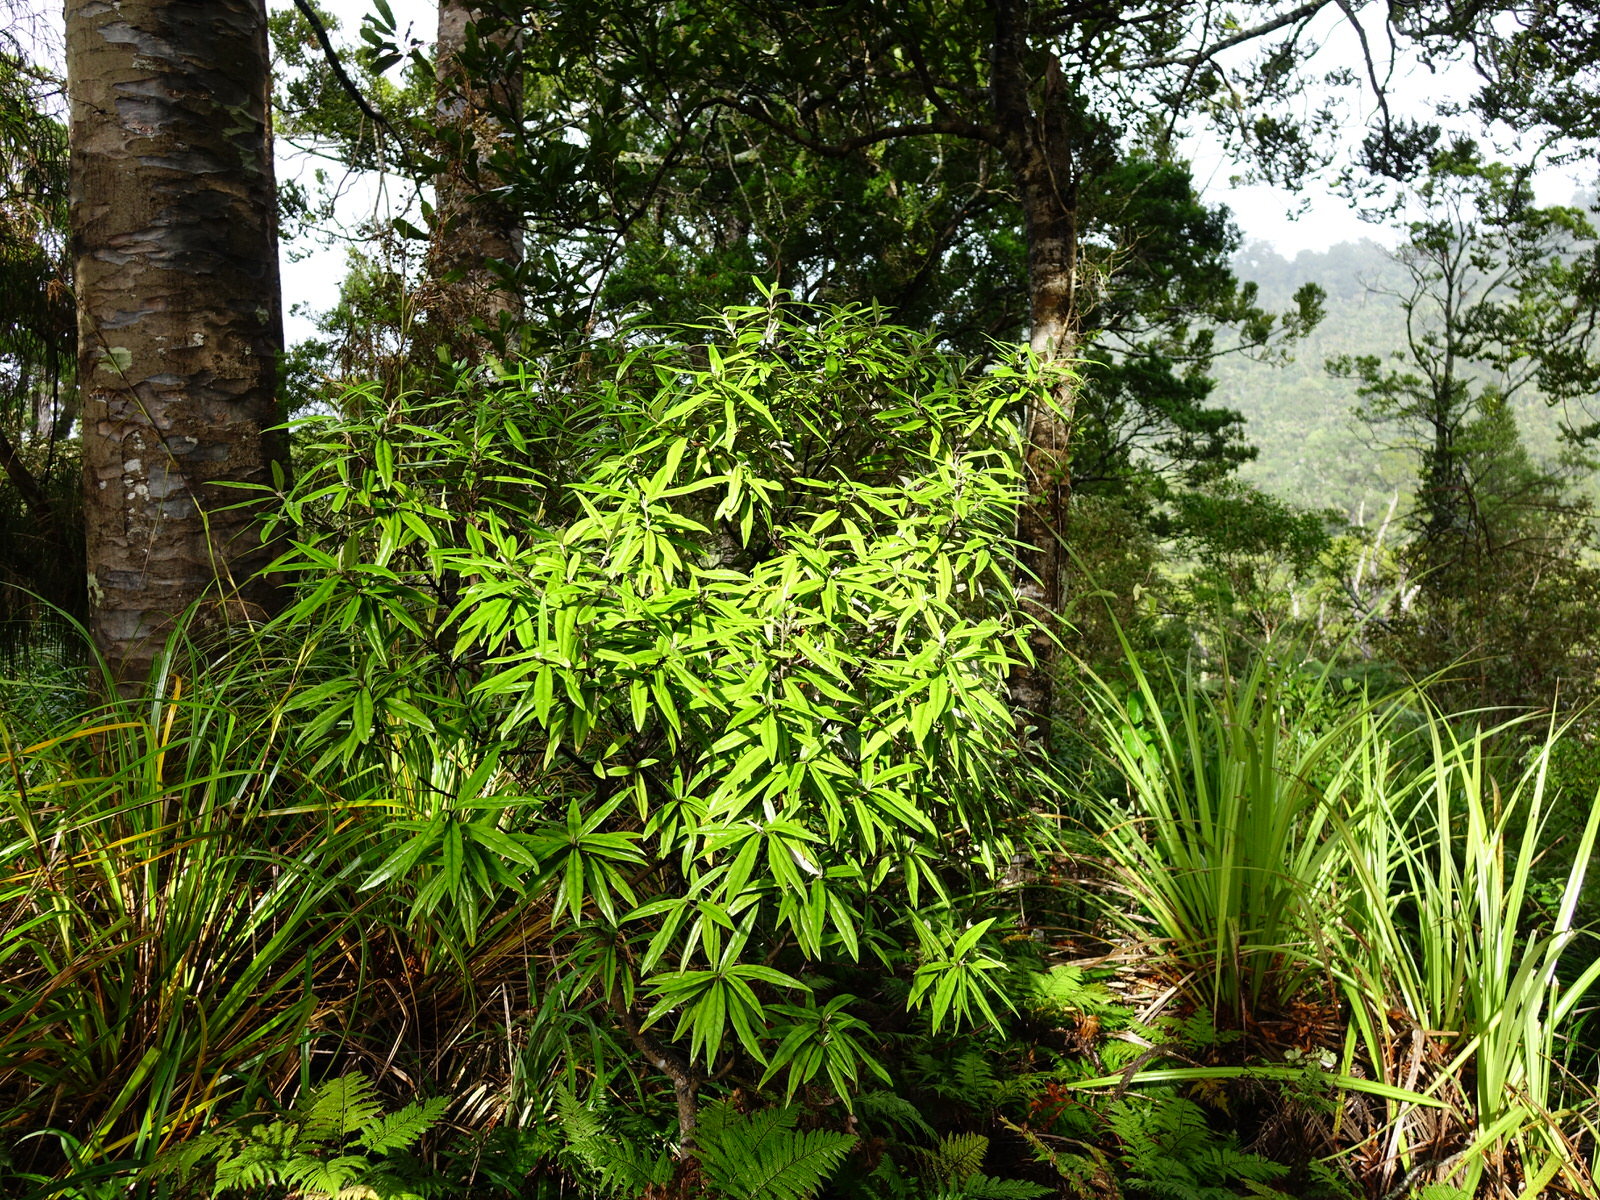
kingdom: Plantae
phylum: Tracheophyta
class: Magnoliopsida
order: Asterales
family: Argophyllaceae
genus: Corokia
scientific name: Corokia buddleioides
